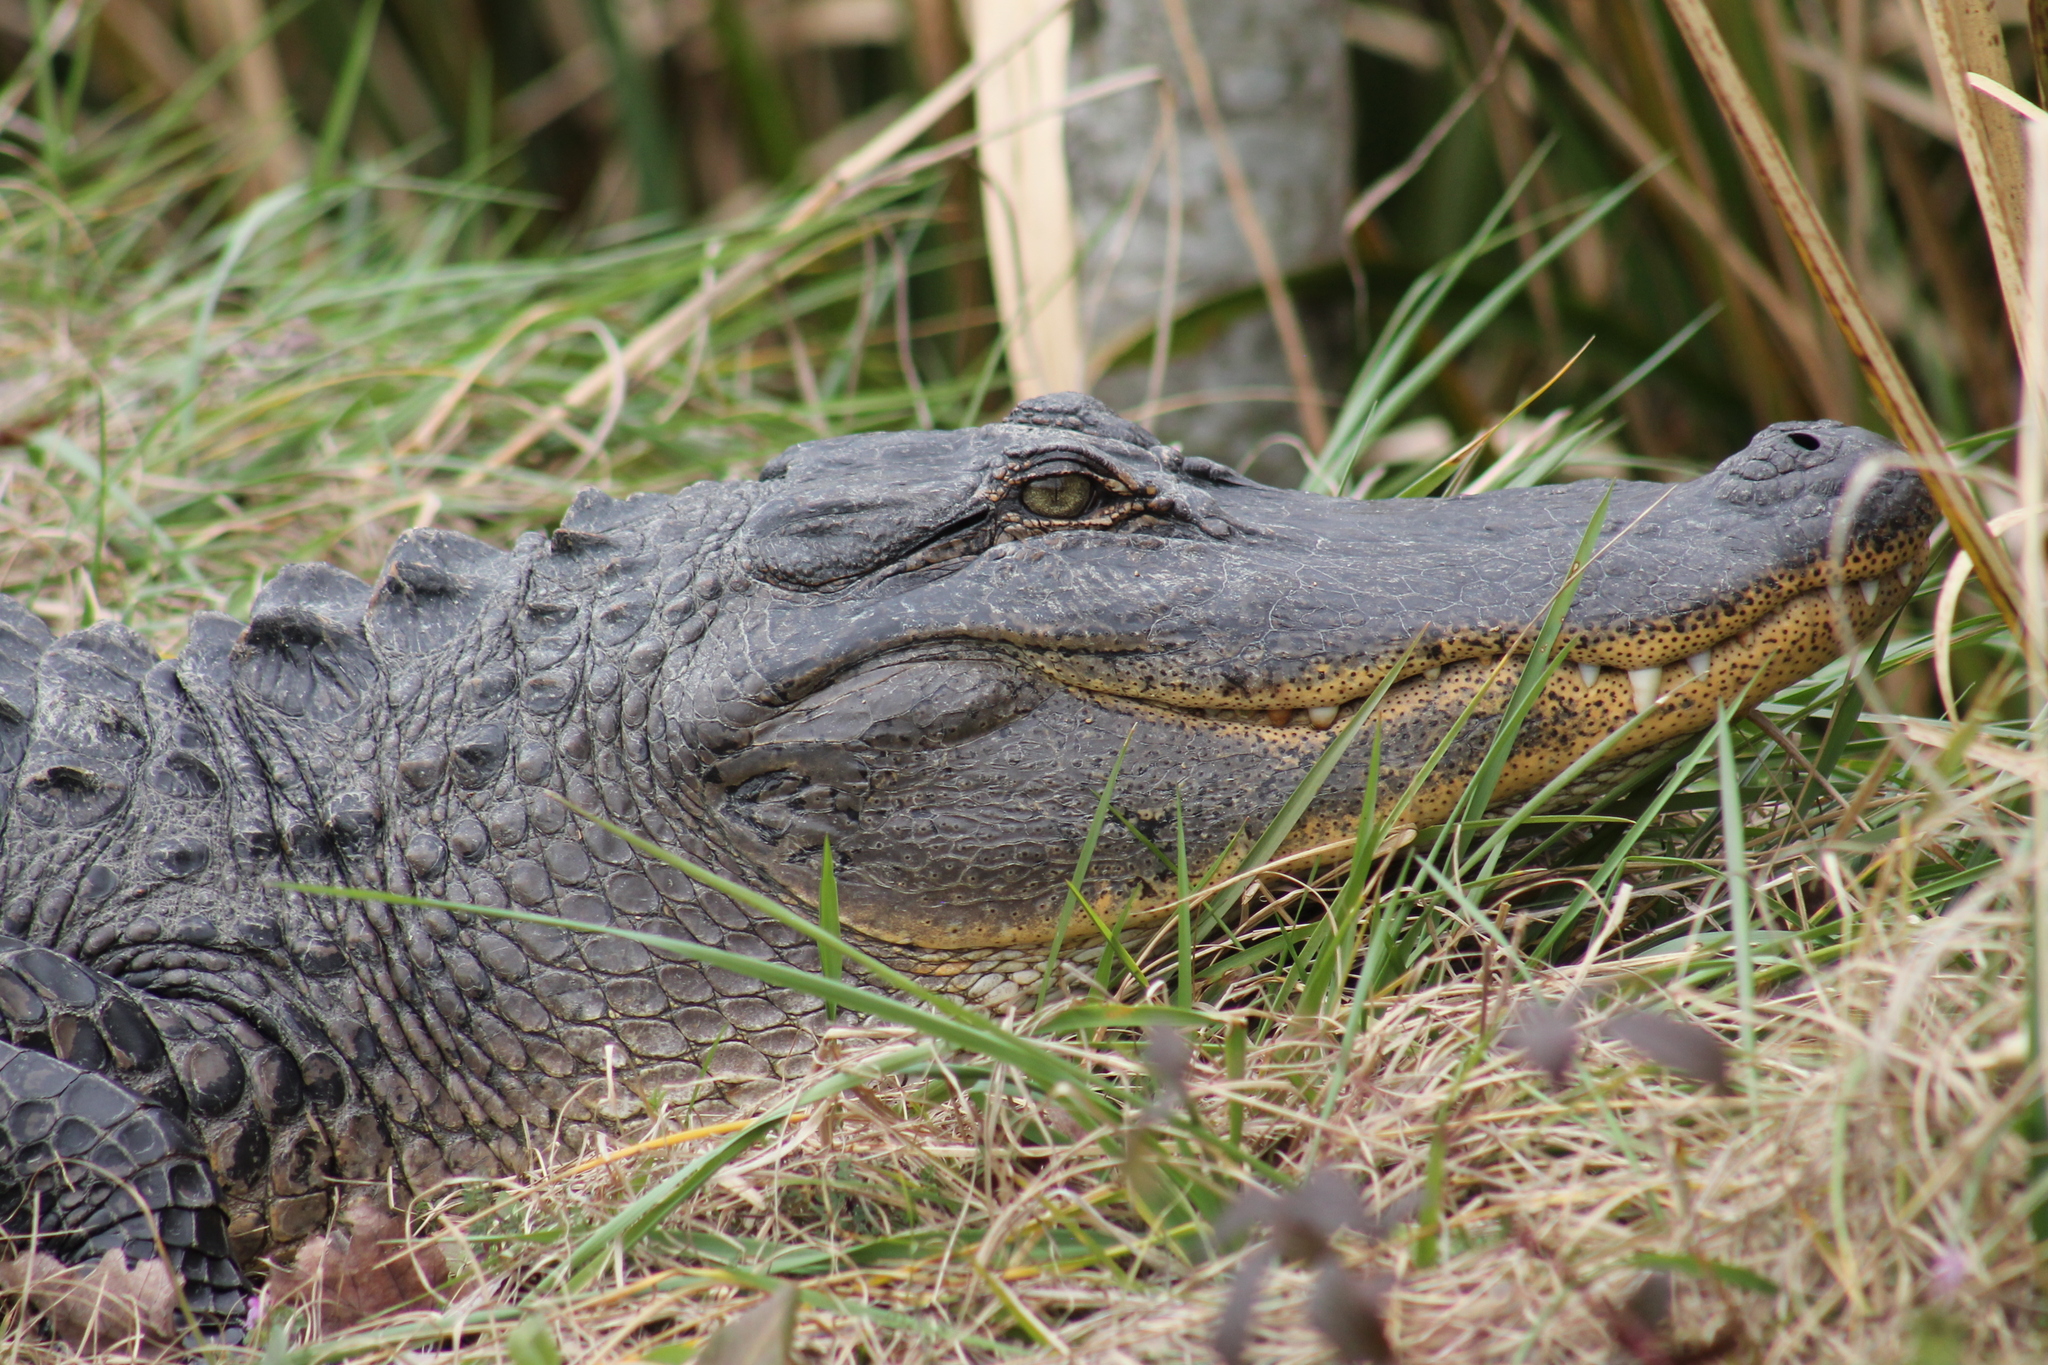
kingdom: Animalia
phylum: Chordata
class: Crocodylia
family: Alligatoridae
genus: Alligator
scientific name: Alligator mississippiensis
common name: American alligator
